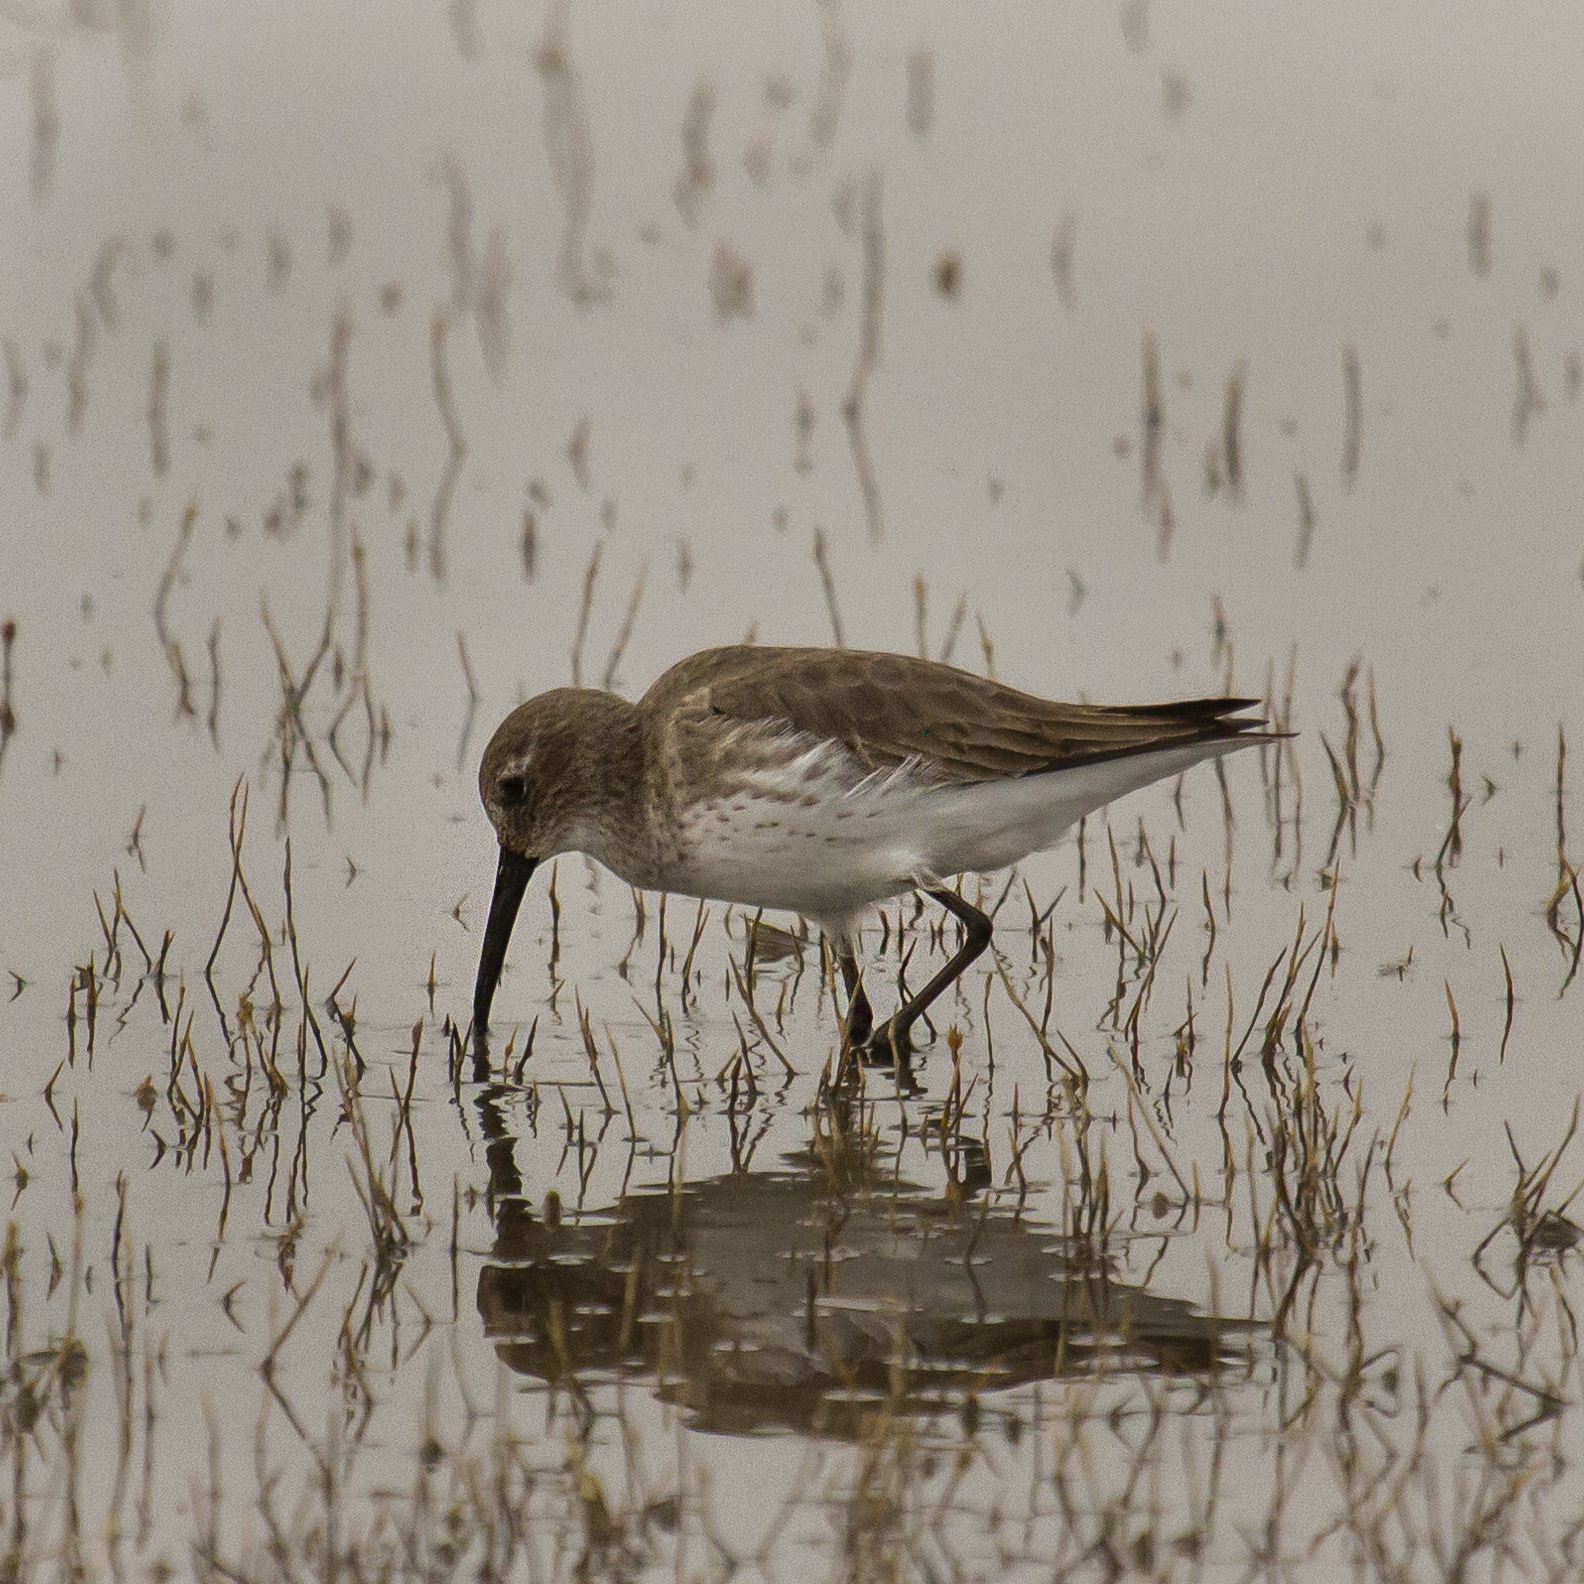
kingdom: Animalia
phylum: Chordata
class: Aves
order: Charadriiformes
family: Scolopacidae
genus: Calidris
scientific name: Calidris alpina
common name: Dunlin
